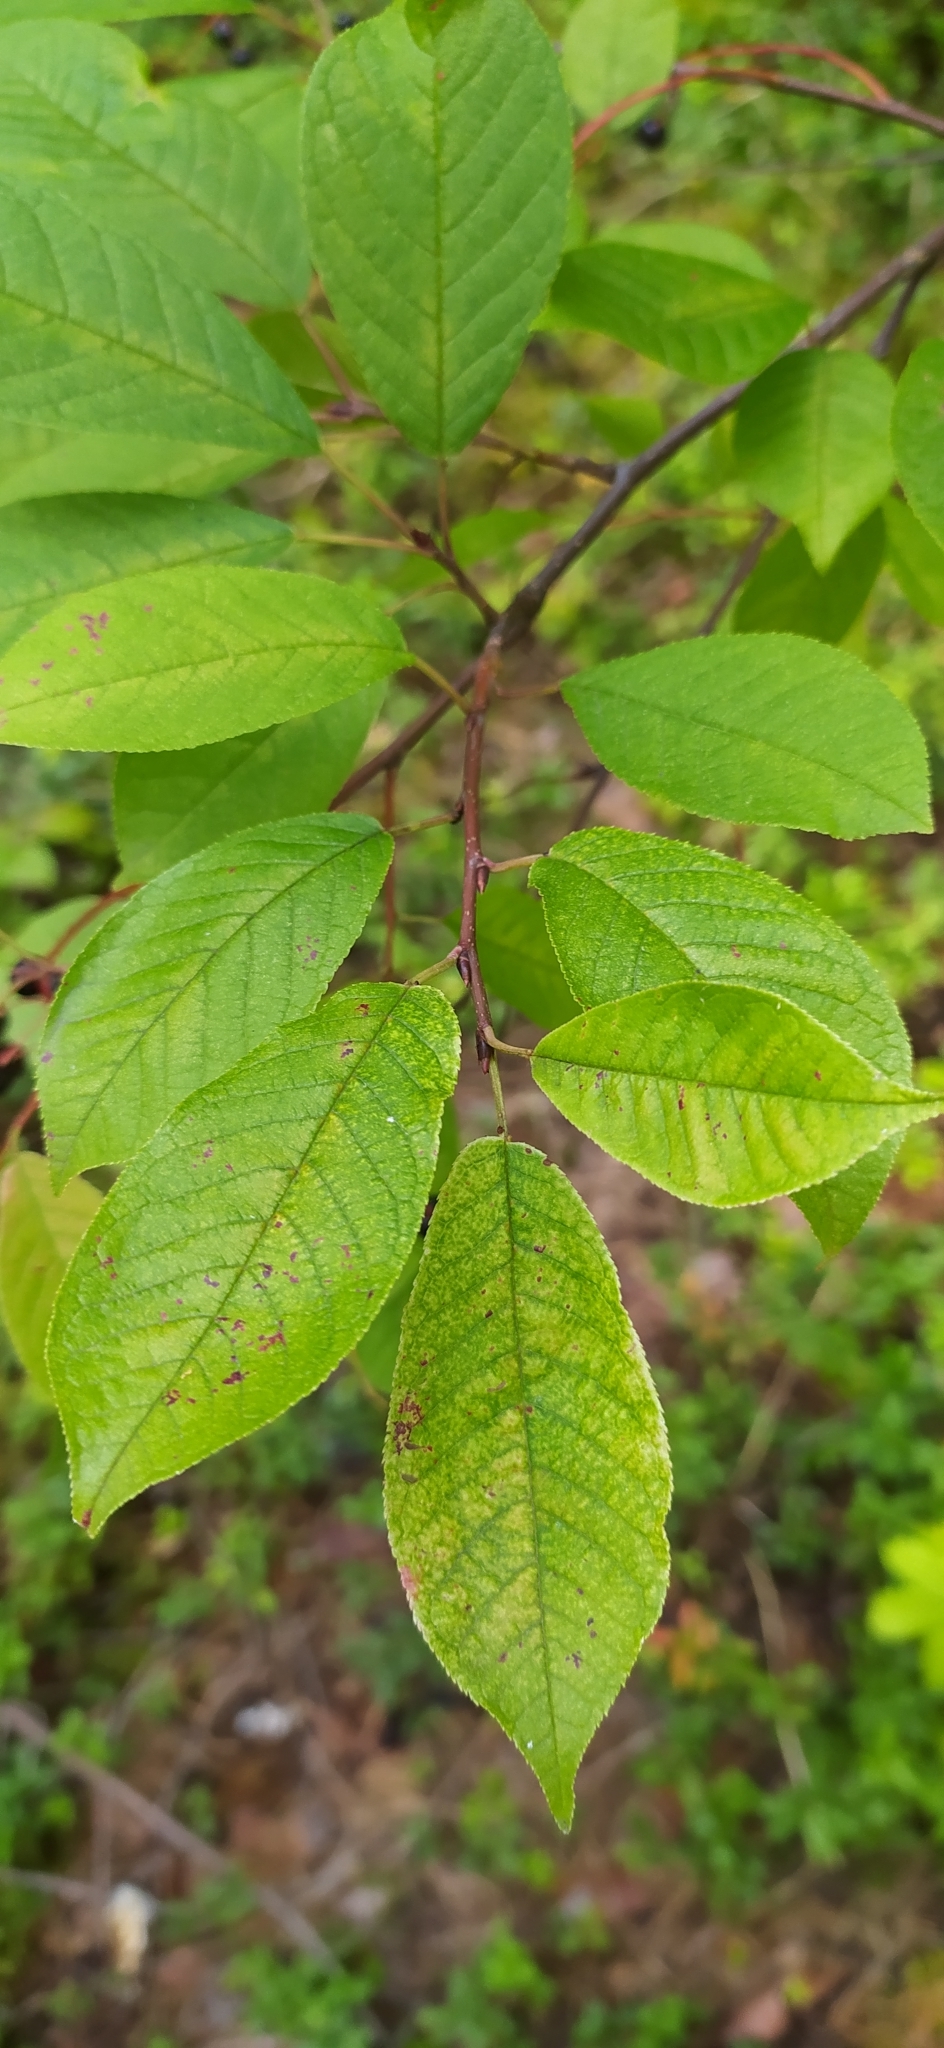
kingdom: Plantae
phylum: Tracheophyta
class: Magnoliopsida
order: Rosales
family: Rosaceae
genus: Prunus
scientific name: Prunus padus
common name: Bird cherry
